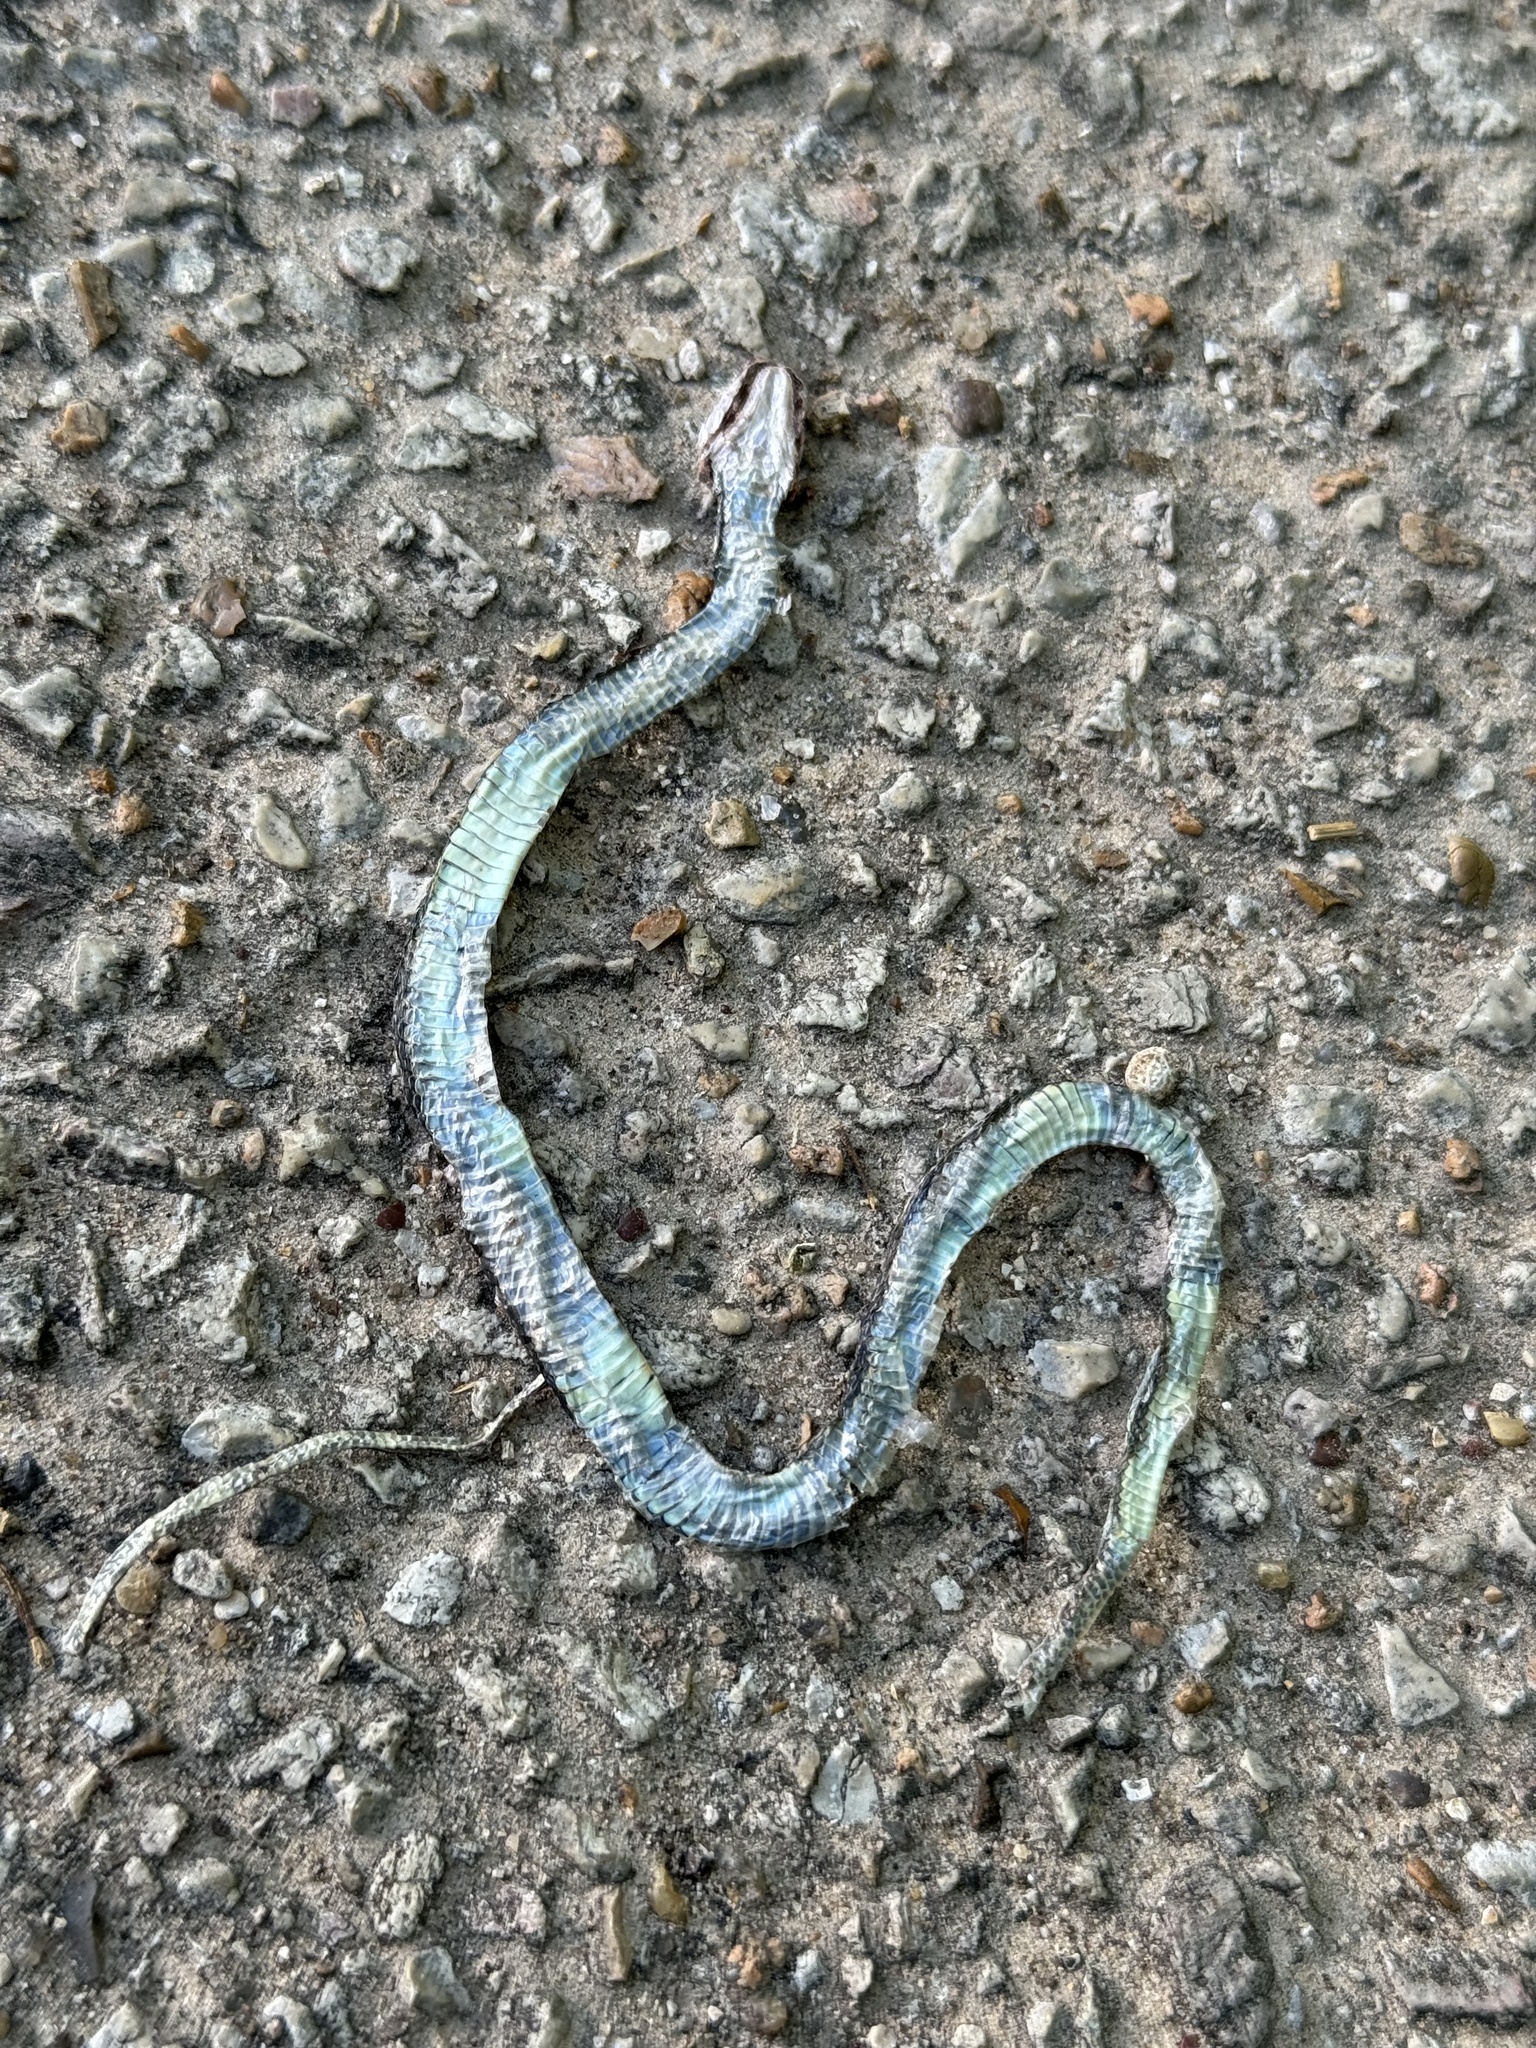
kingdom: Animalia
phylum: Chordata
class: Squamata
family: Colubridae
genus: Thamnophis
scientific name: Thamnophis proximus
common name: Western ribbon snake
